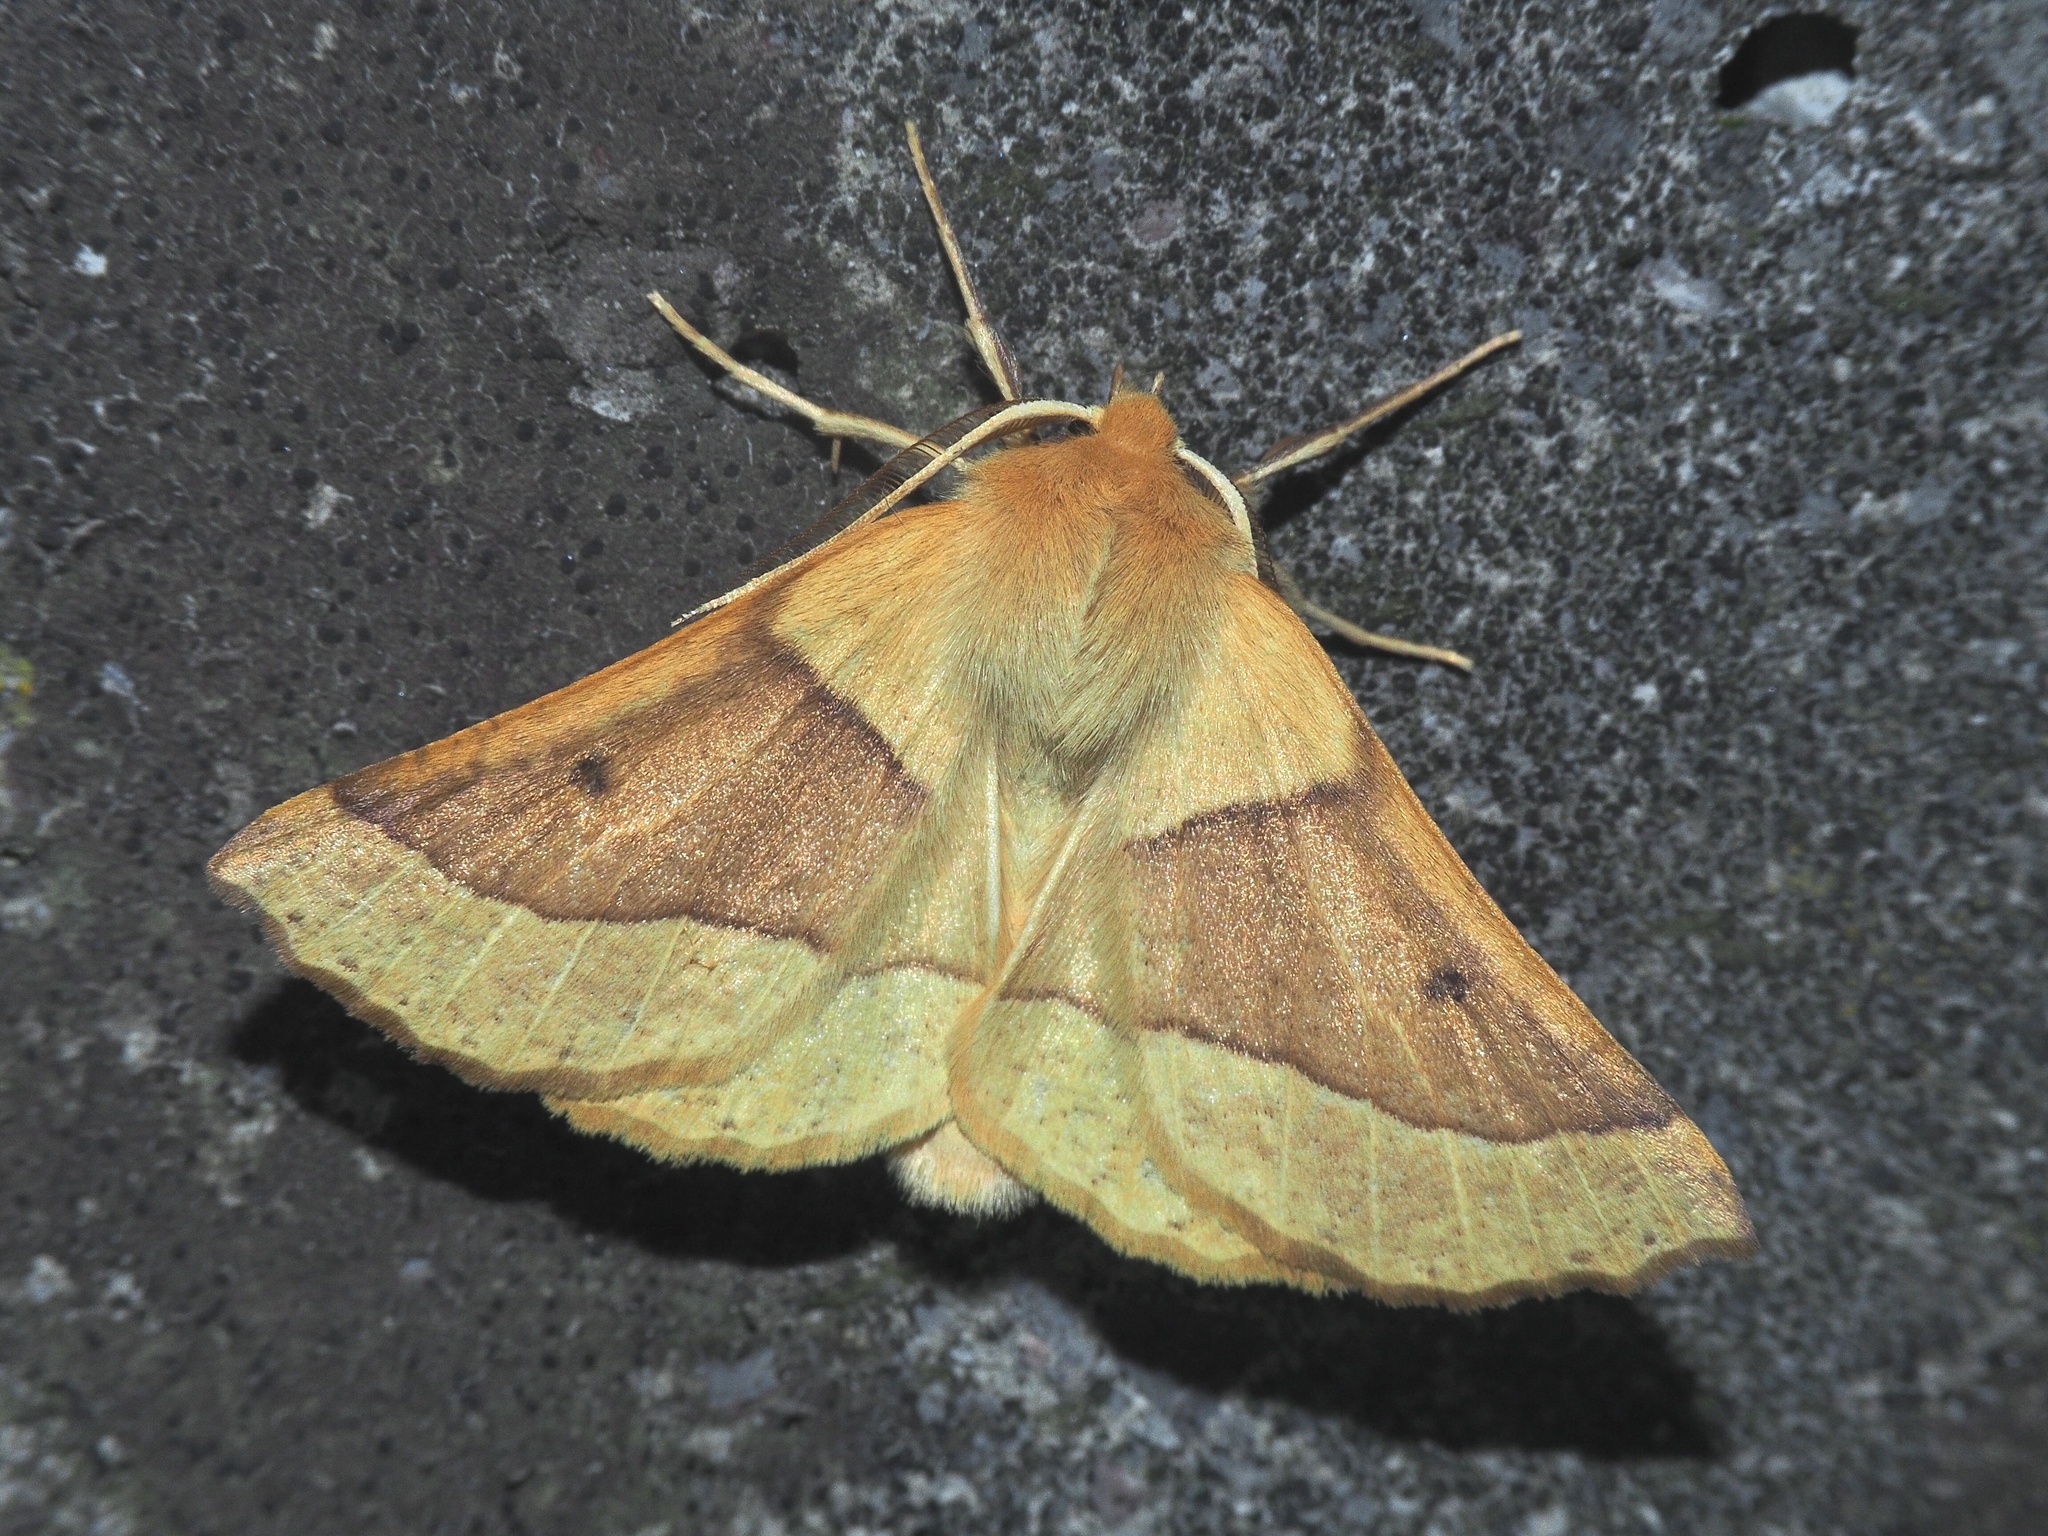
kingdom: Animalia
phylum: Arthropoda
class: Insecta
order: Lepidoptera
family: Geometridae
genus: Crocallis
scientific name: Crocallis elinguaria
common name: Scalloped oak
